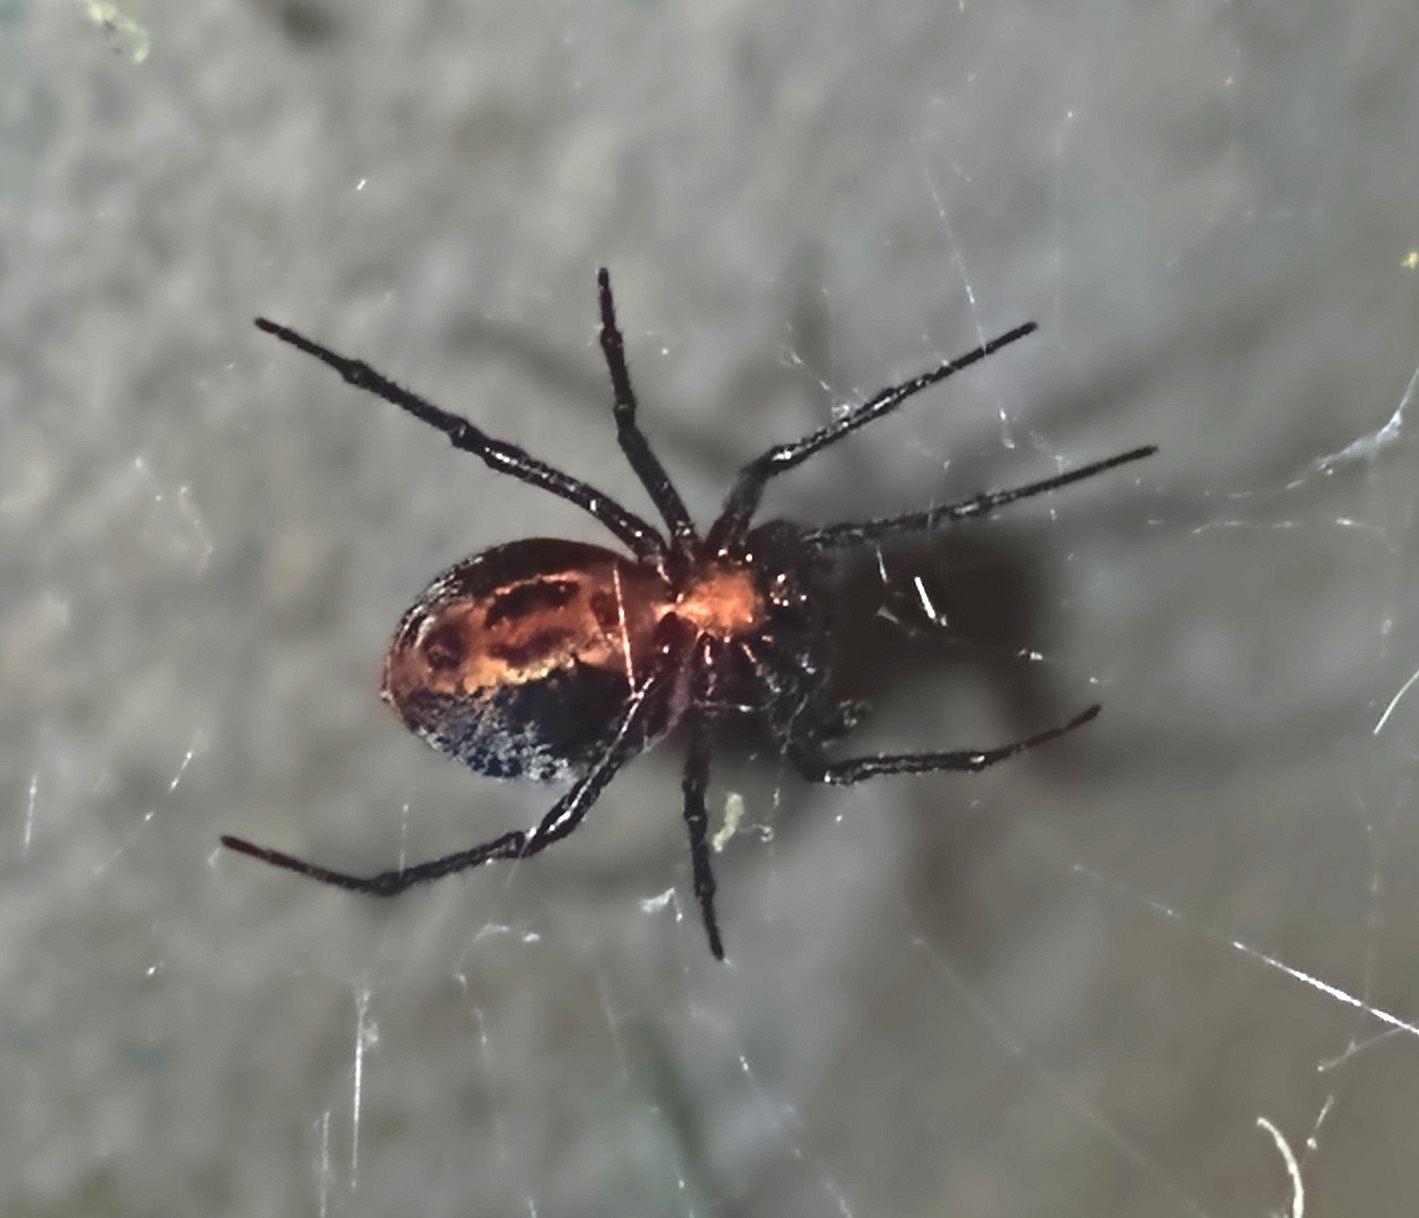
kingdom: Animalia
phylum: Arthropoda
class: Arachnida
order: Araneae
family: Araneidae
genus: Alpaida
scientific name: Alpaida carminea
